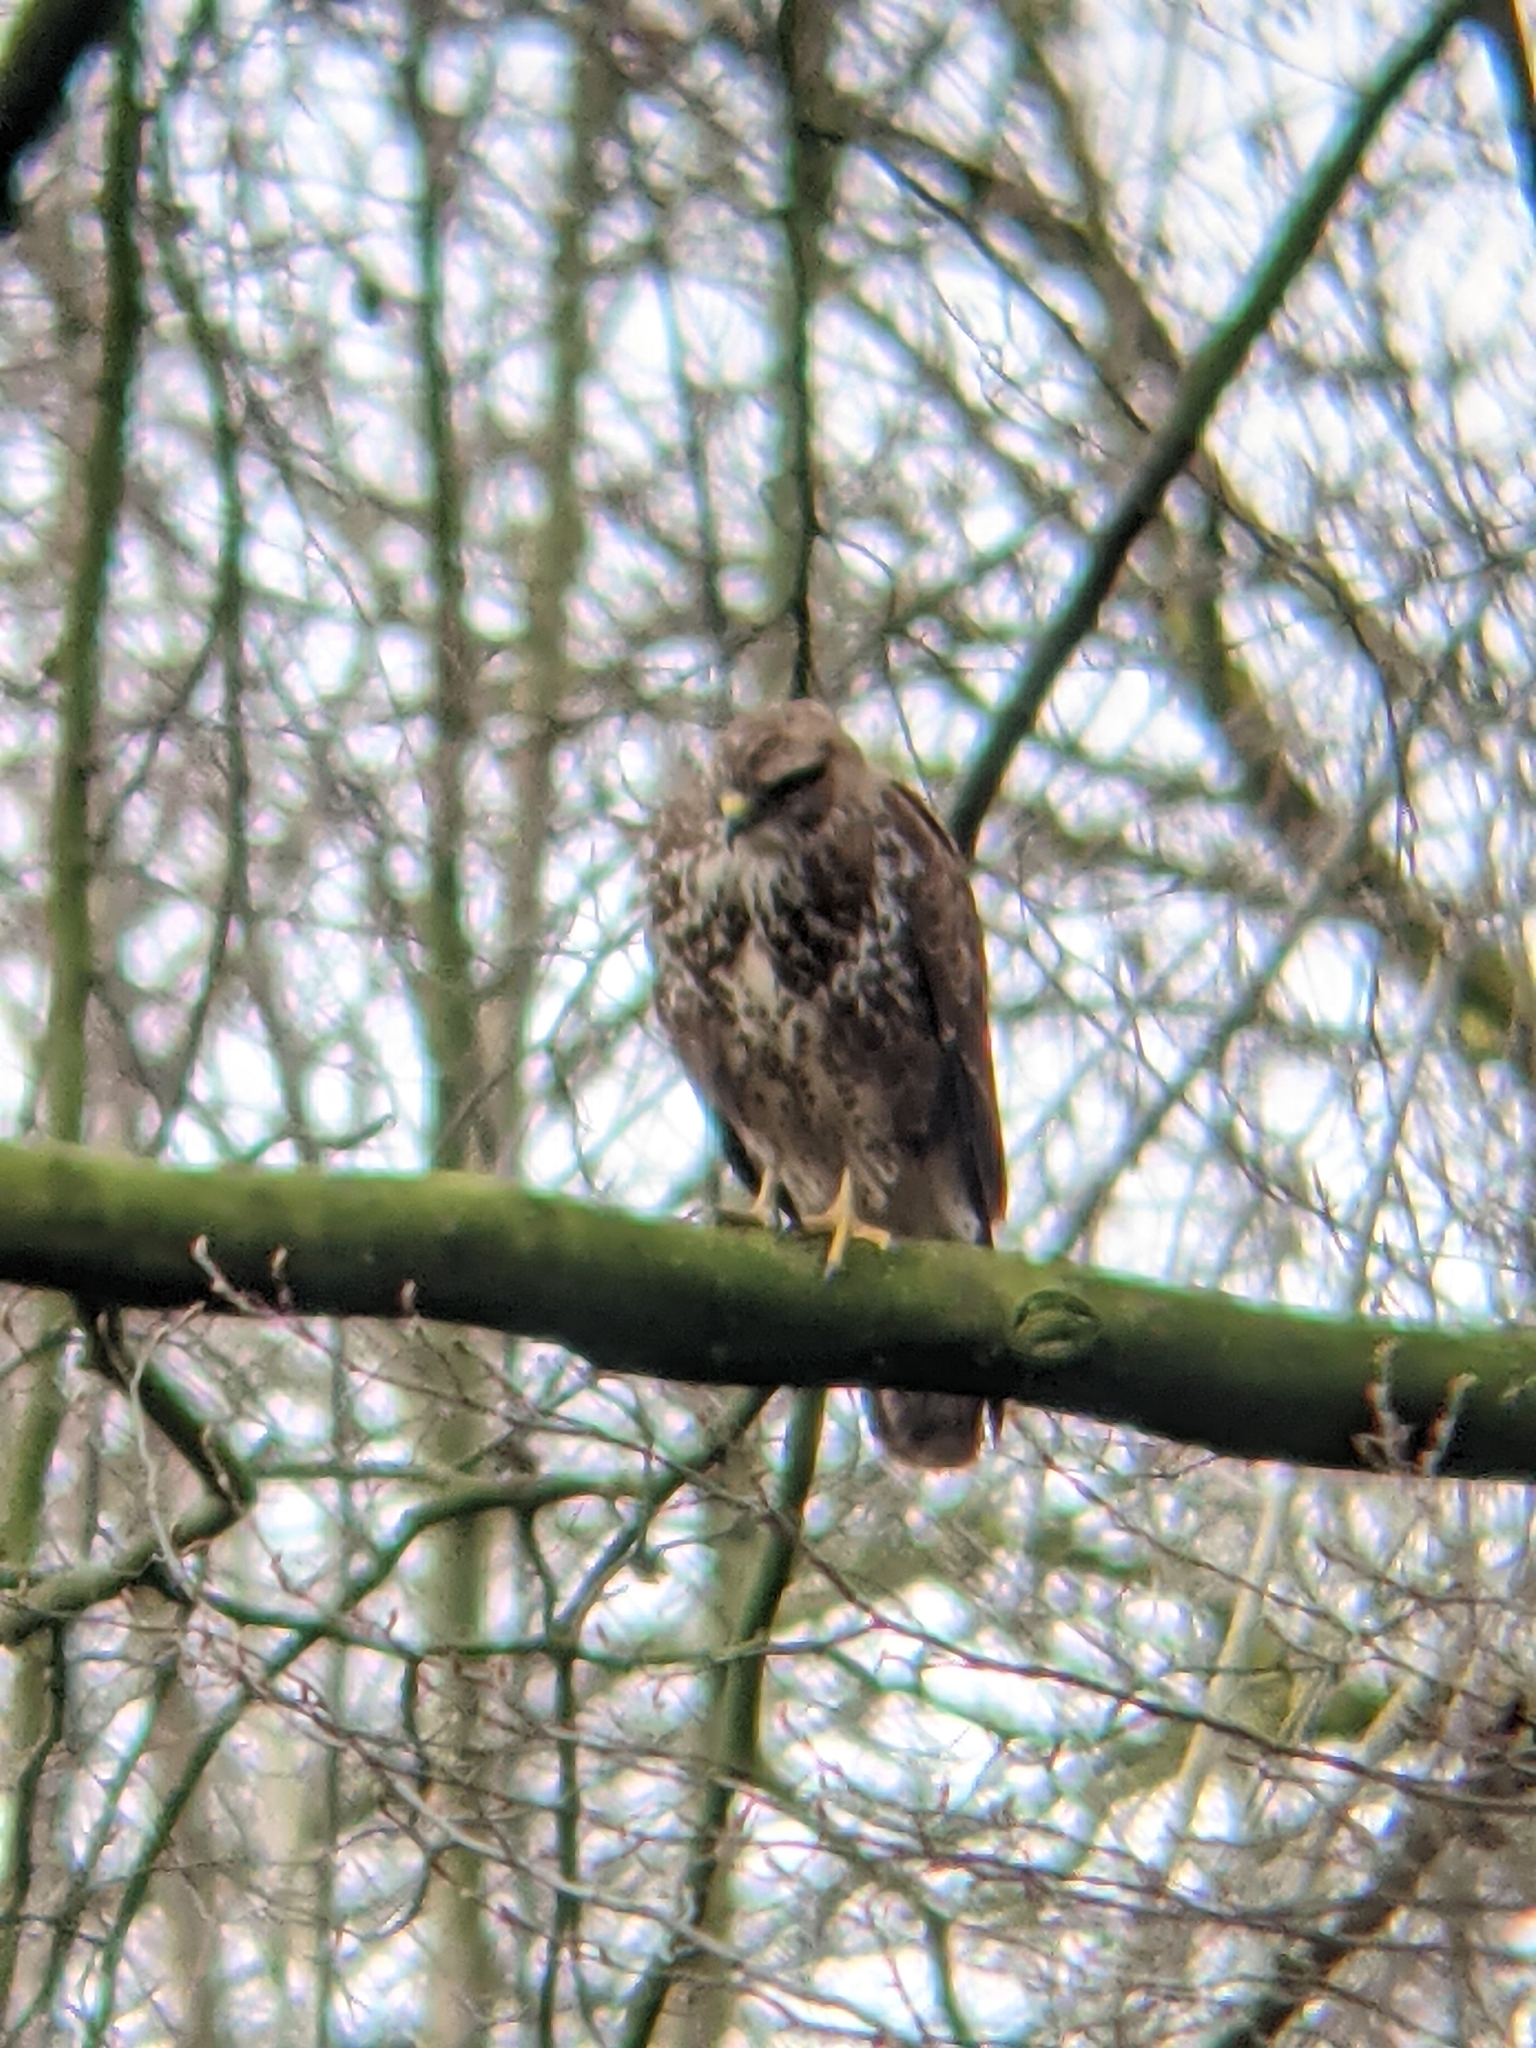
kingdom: Animalia
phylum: Chordata
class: Aves
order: Accipitriformes
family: Accipitridae
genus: Buteo
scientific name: Buteo buteo
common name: Common buzzard
